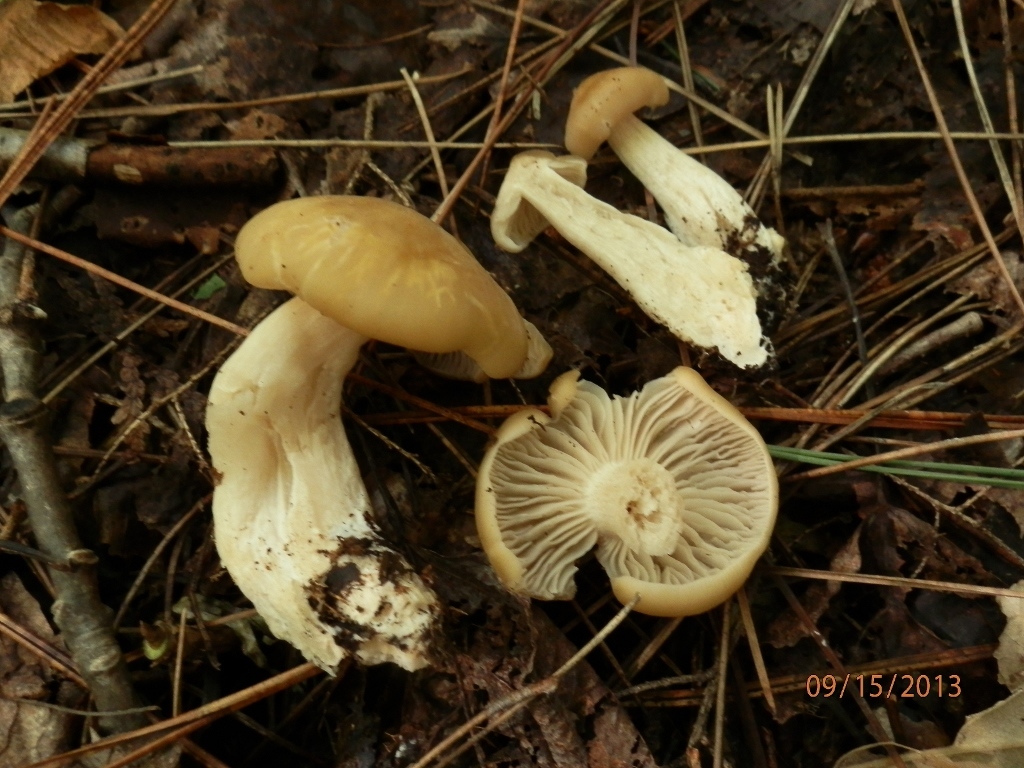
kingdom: Fungi
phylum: Basidiomycota
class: Agaricomycetes
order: Agaricales
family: Entolomataceae
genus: Entoloma
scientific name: Entoloma lividoalbum
